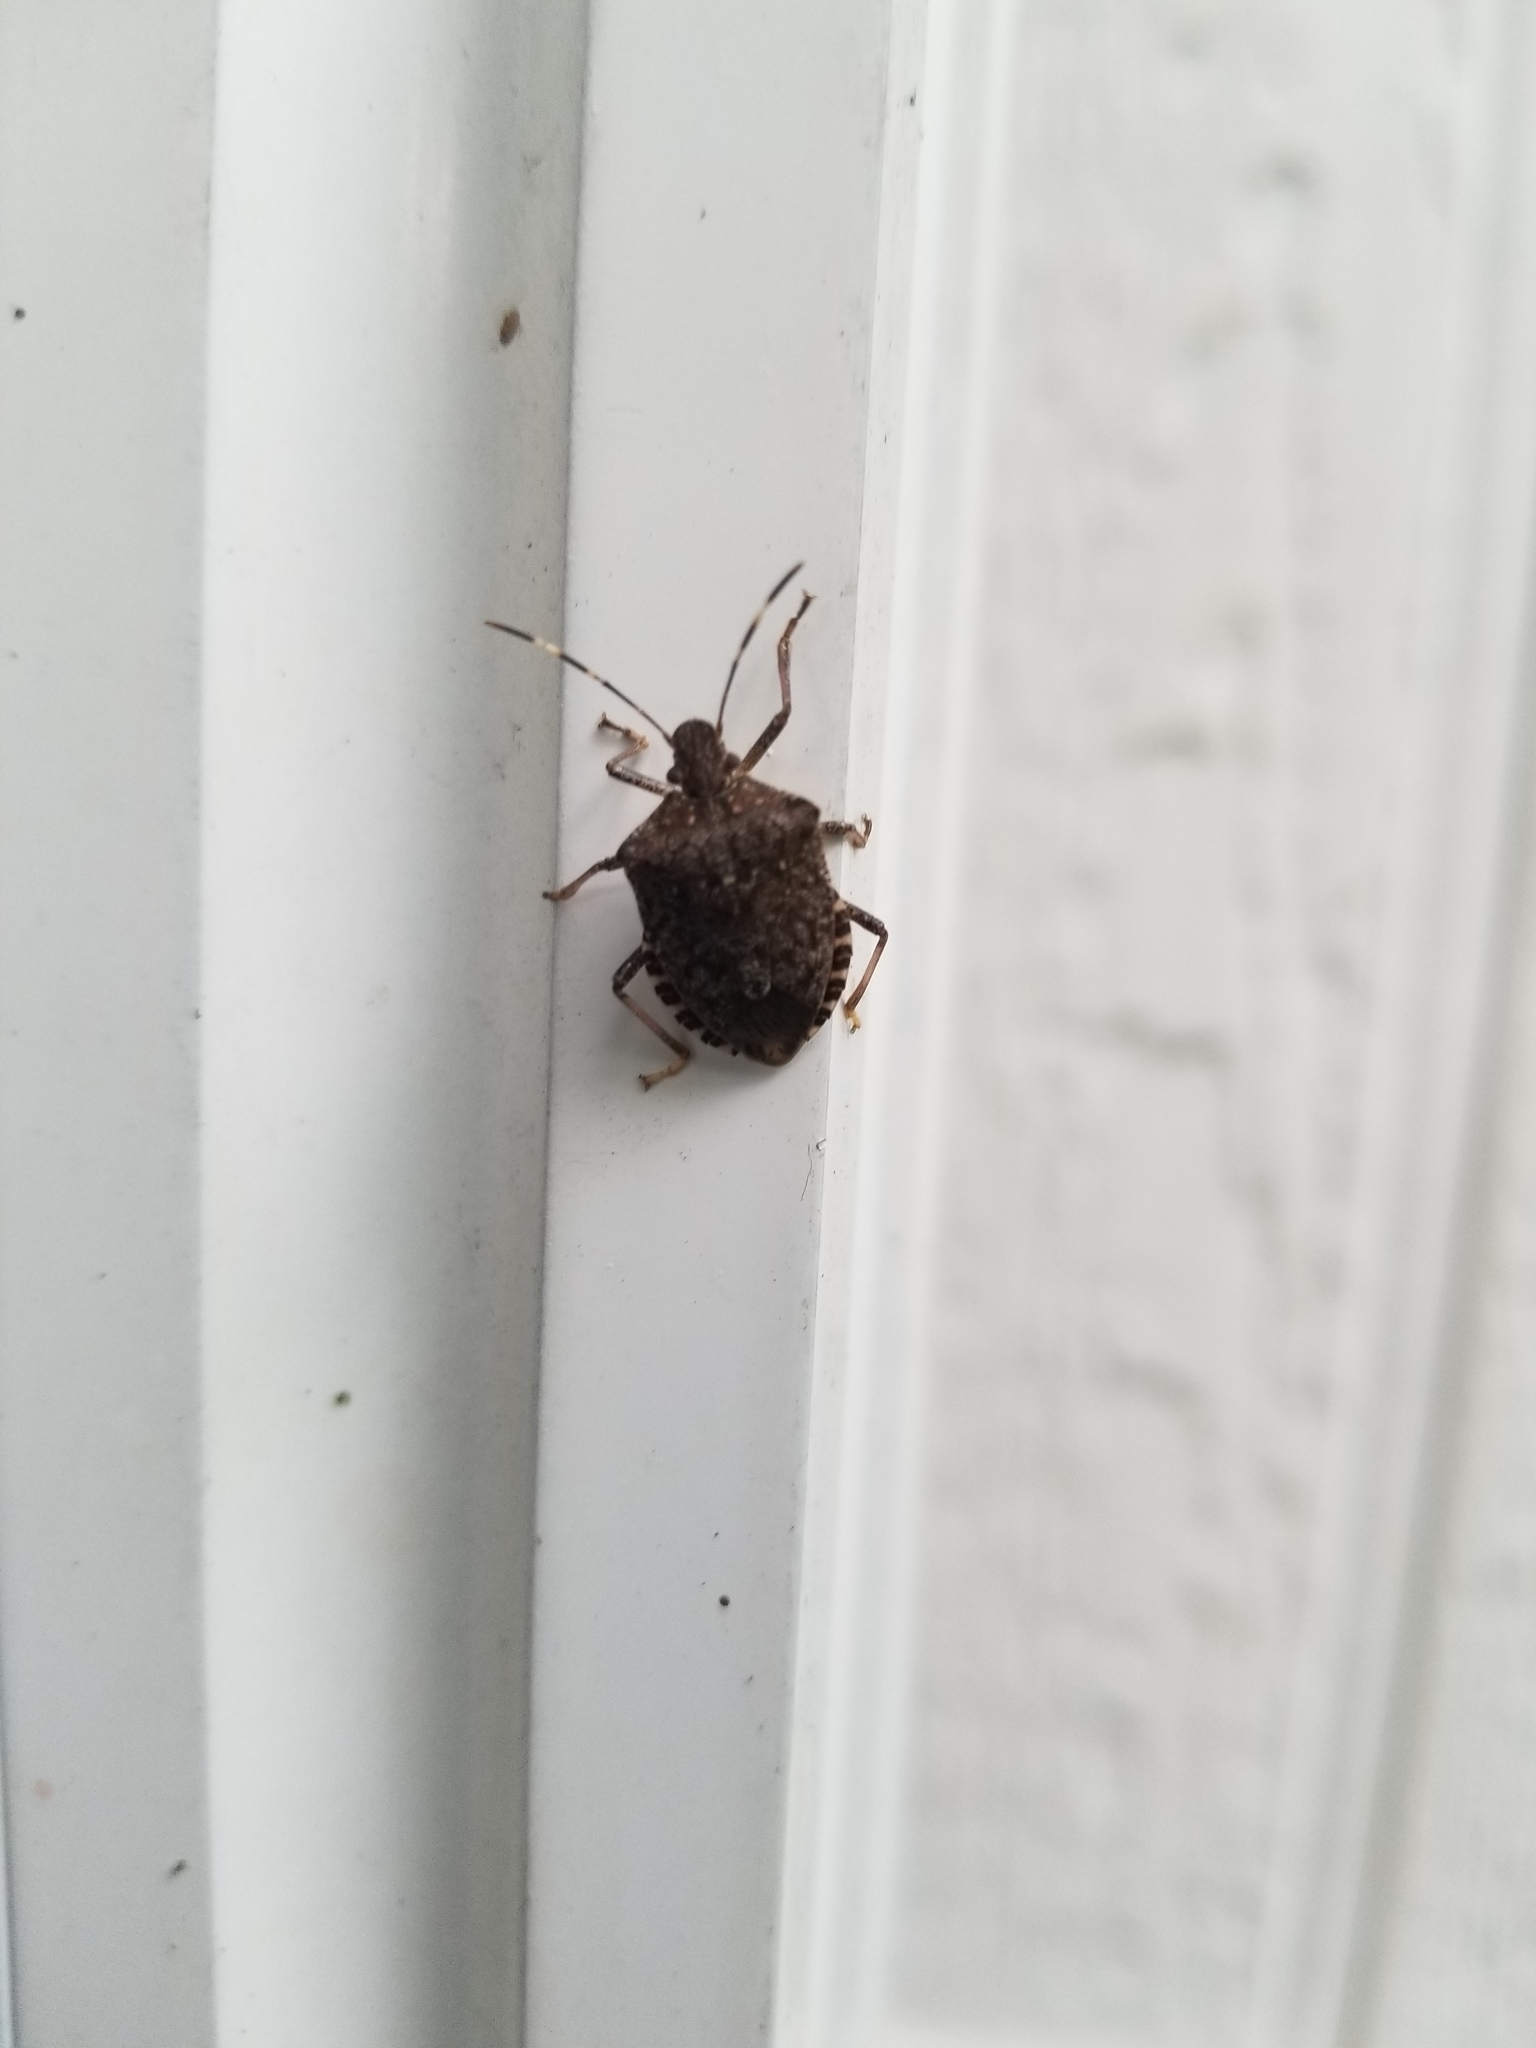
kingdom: Animalia
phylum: Arthropoda
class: Insecta
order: Hemiptera
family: Pentatomidae
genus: Halyomorpha
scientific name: Halyomorpha halys
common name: Brown marmorated stink bug
